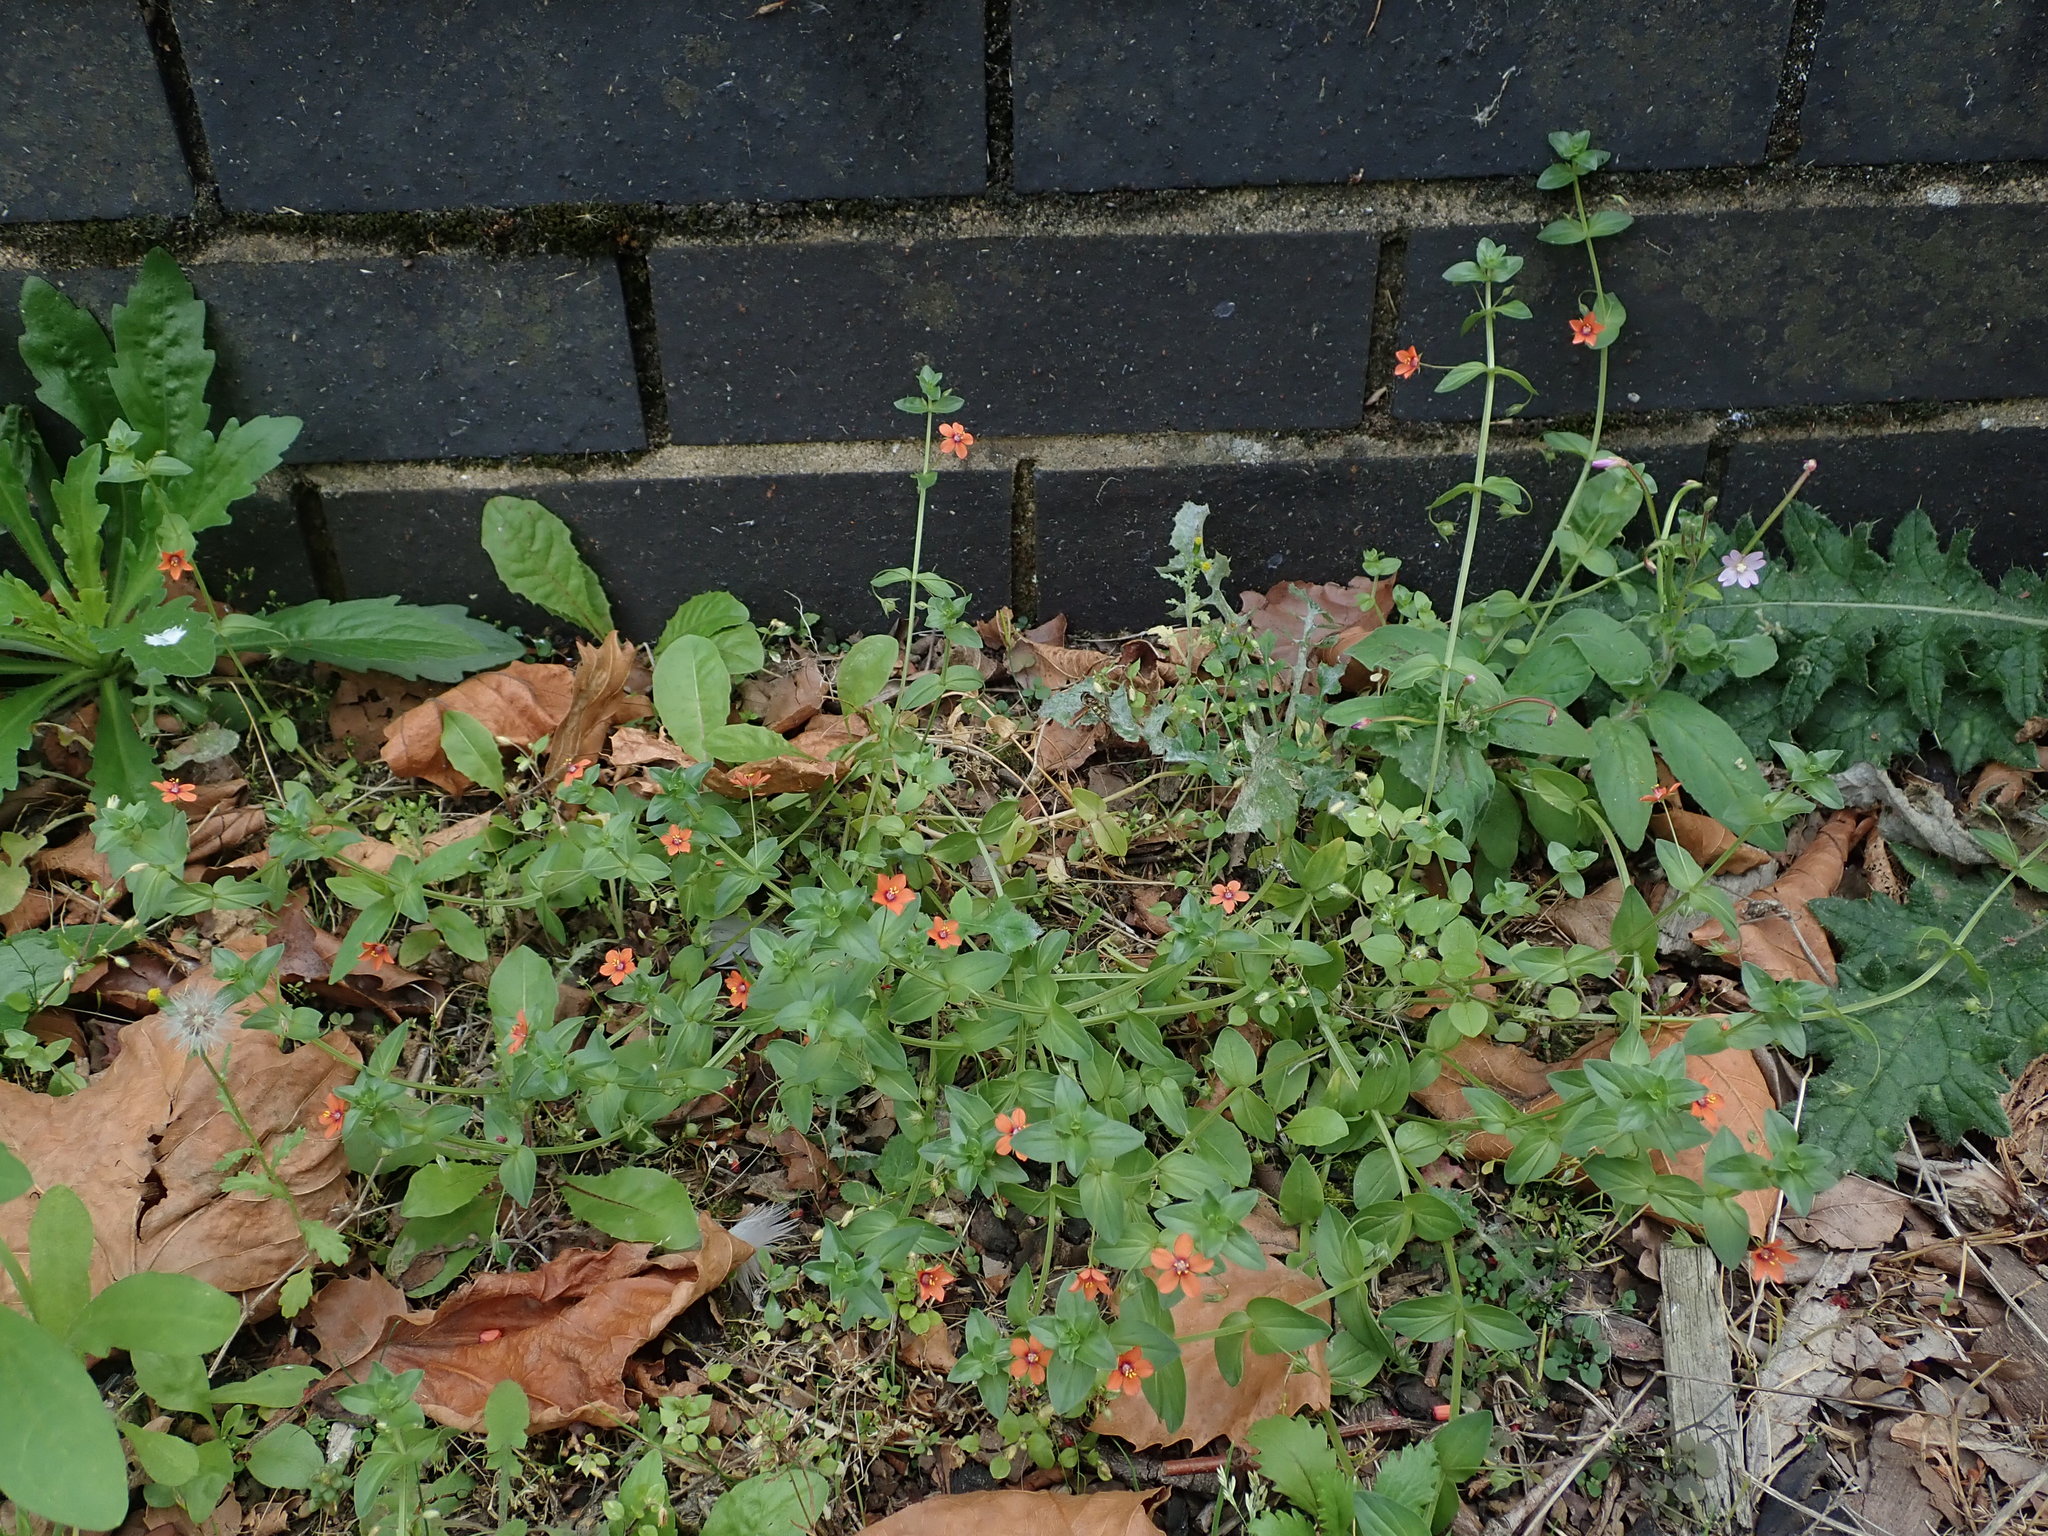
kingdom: Plantae
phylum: Tracheophyta
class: Magnoliopsida
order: Ericales
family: Primulaceae
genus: Lysimachia
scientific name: Lysimachia arvensis
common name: Scarlet pimpernel
